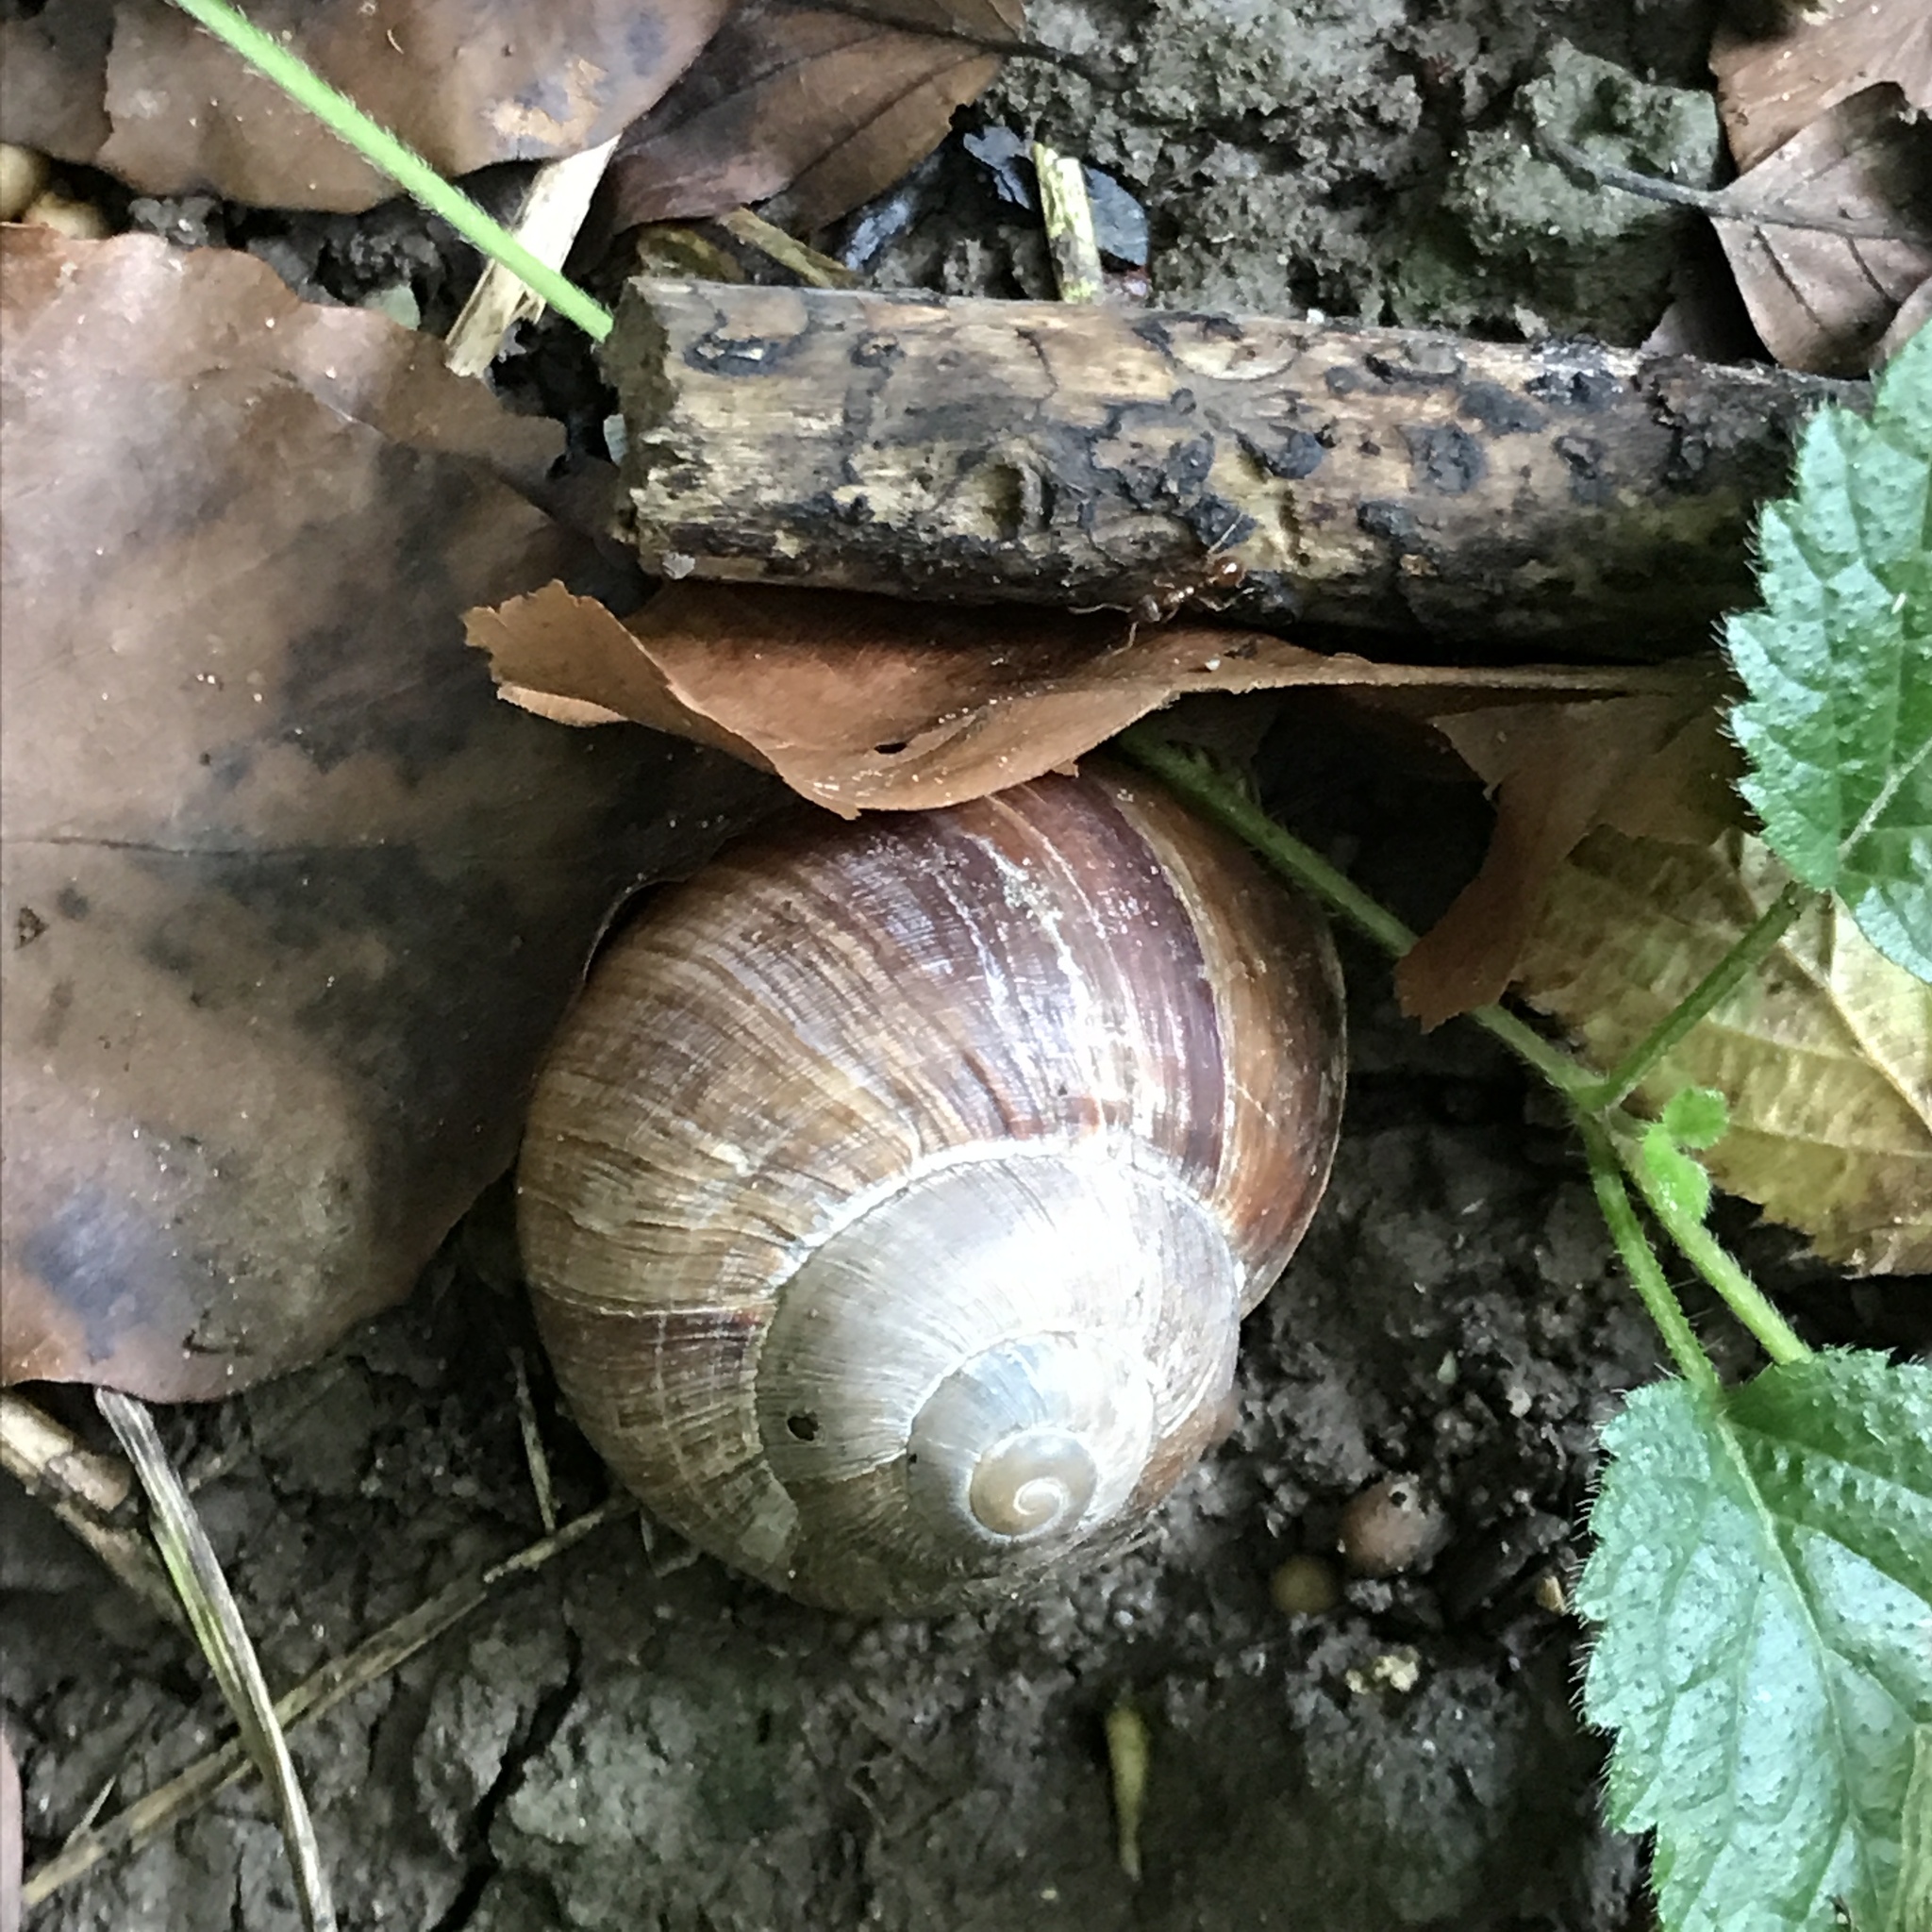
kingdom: Animalia
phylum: Mollusca
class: Gastropoda
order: Stylommatophora
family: Helicidae
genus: Helix
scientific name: Helix pomatia
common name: Roman snail
